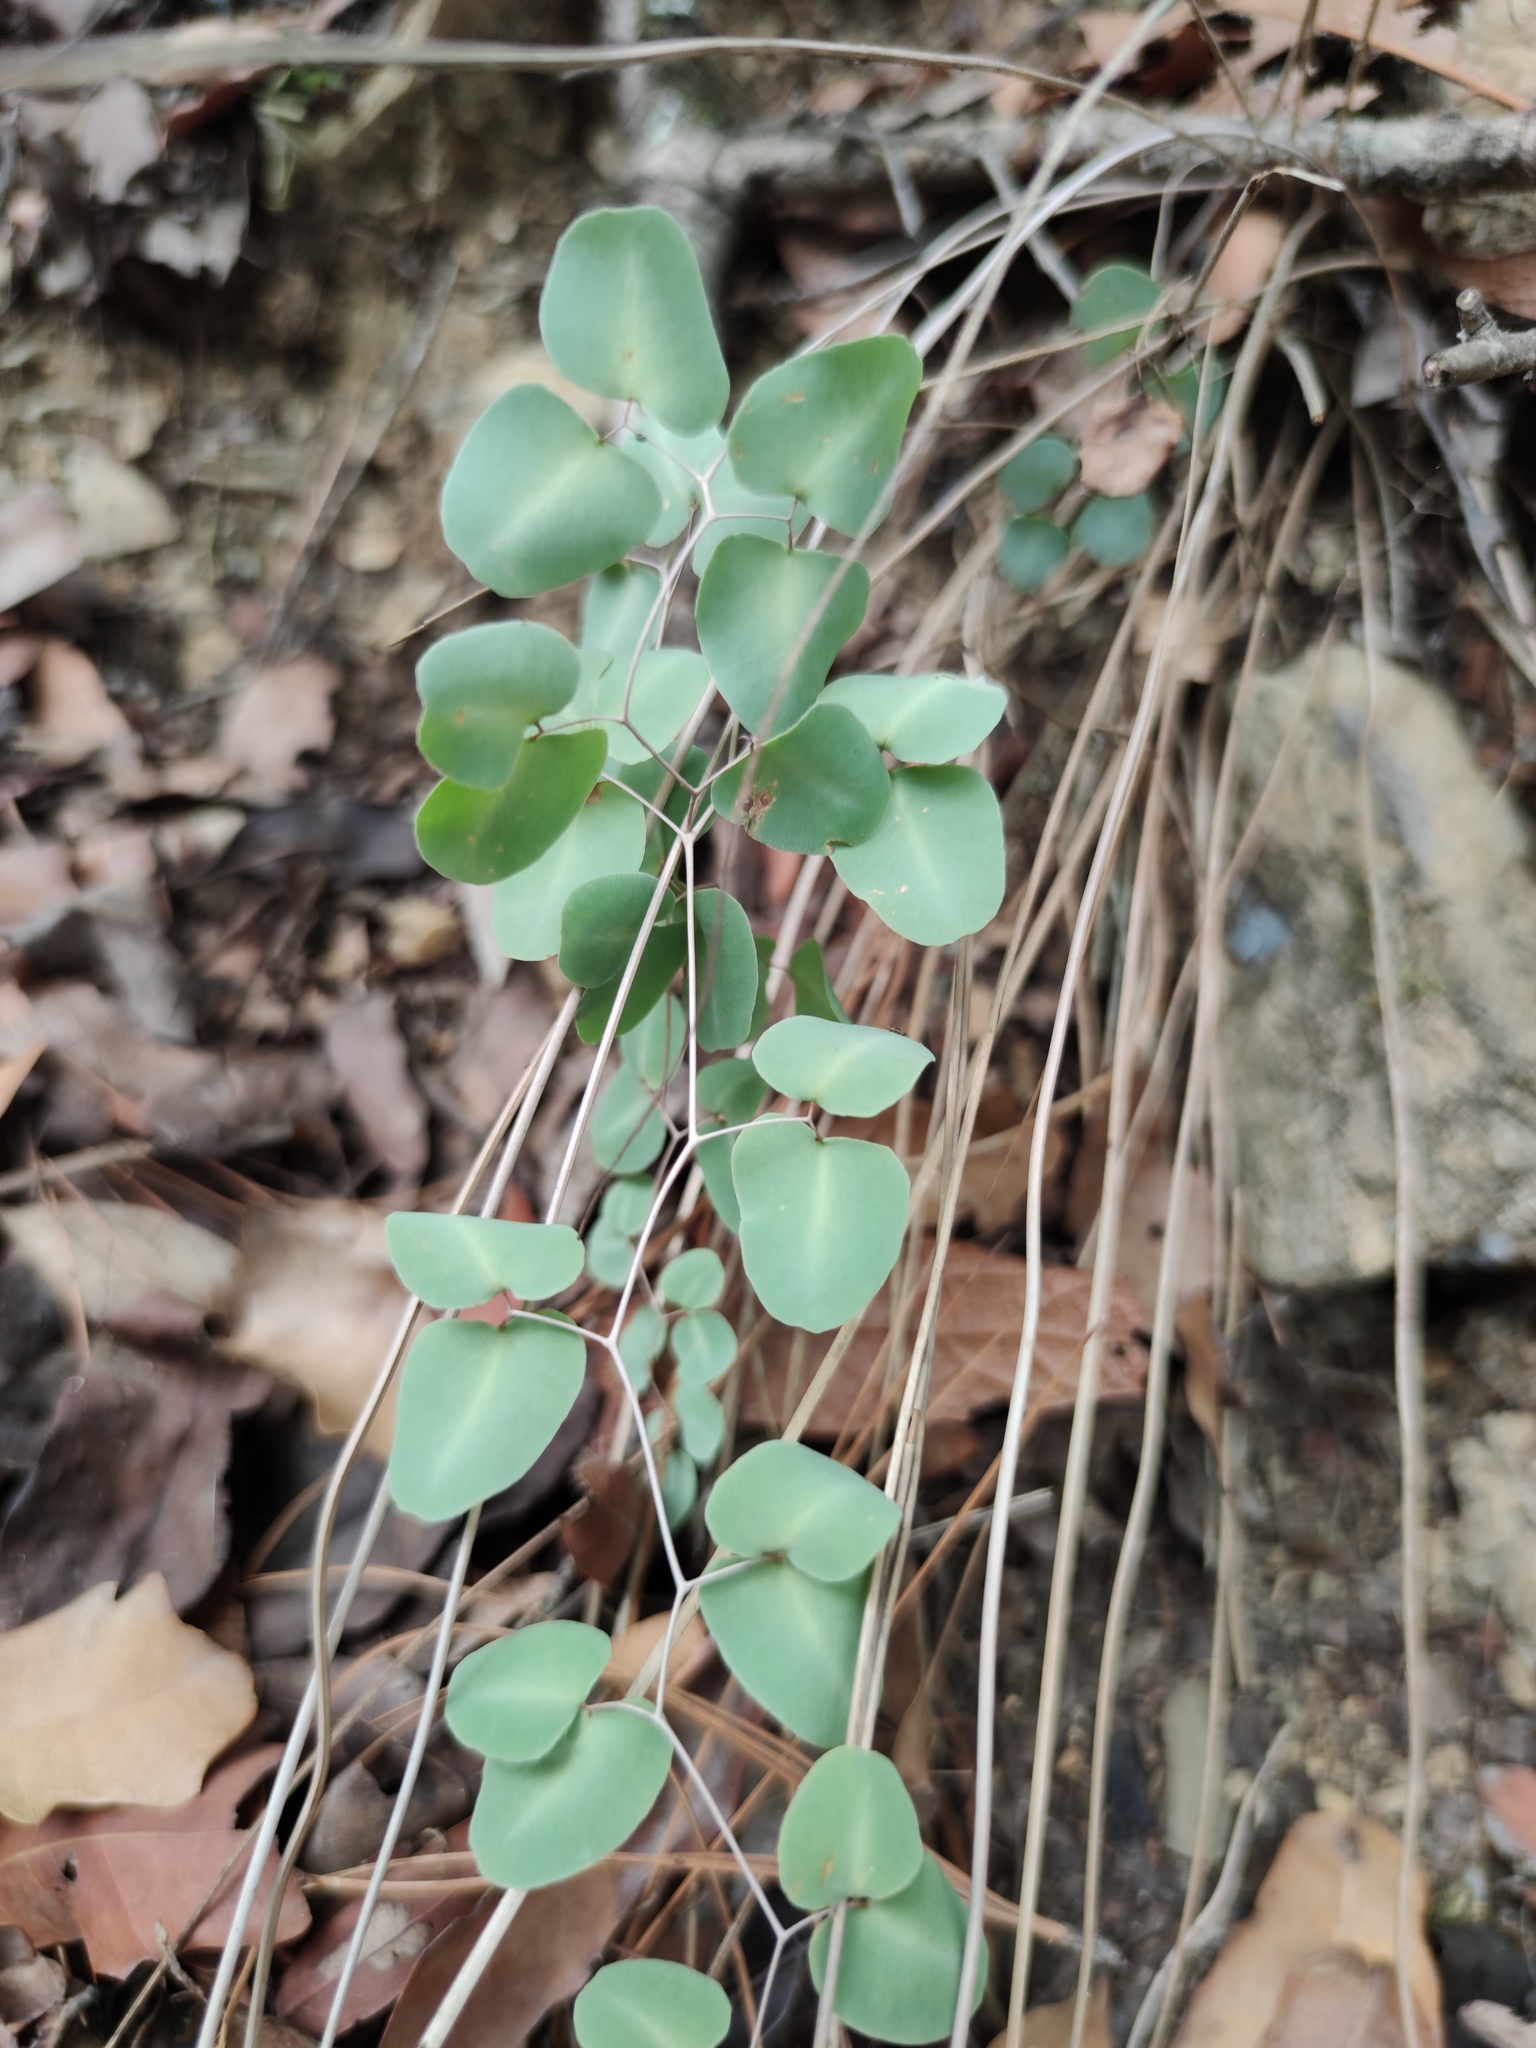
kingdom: Plantae
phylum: Tracheophyta
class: Polypodiopsida
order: Polypodiales
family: Pteridaceae
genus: Pellaea
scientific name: Pellaea ovata
